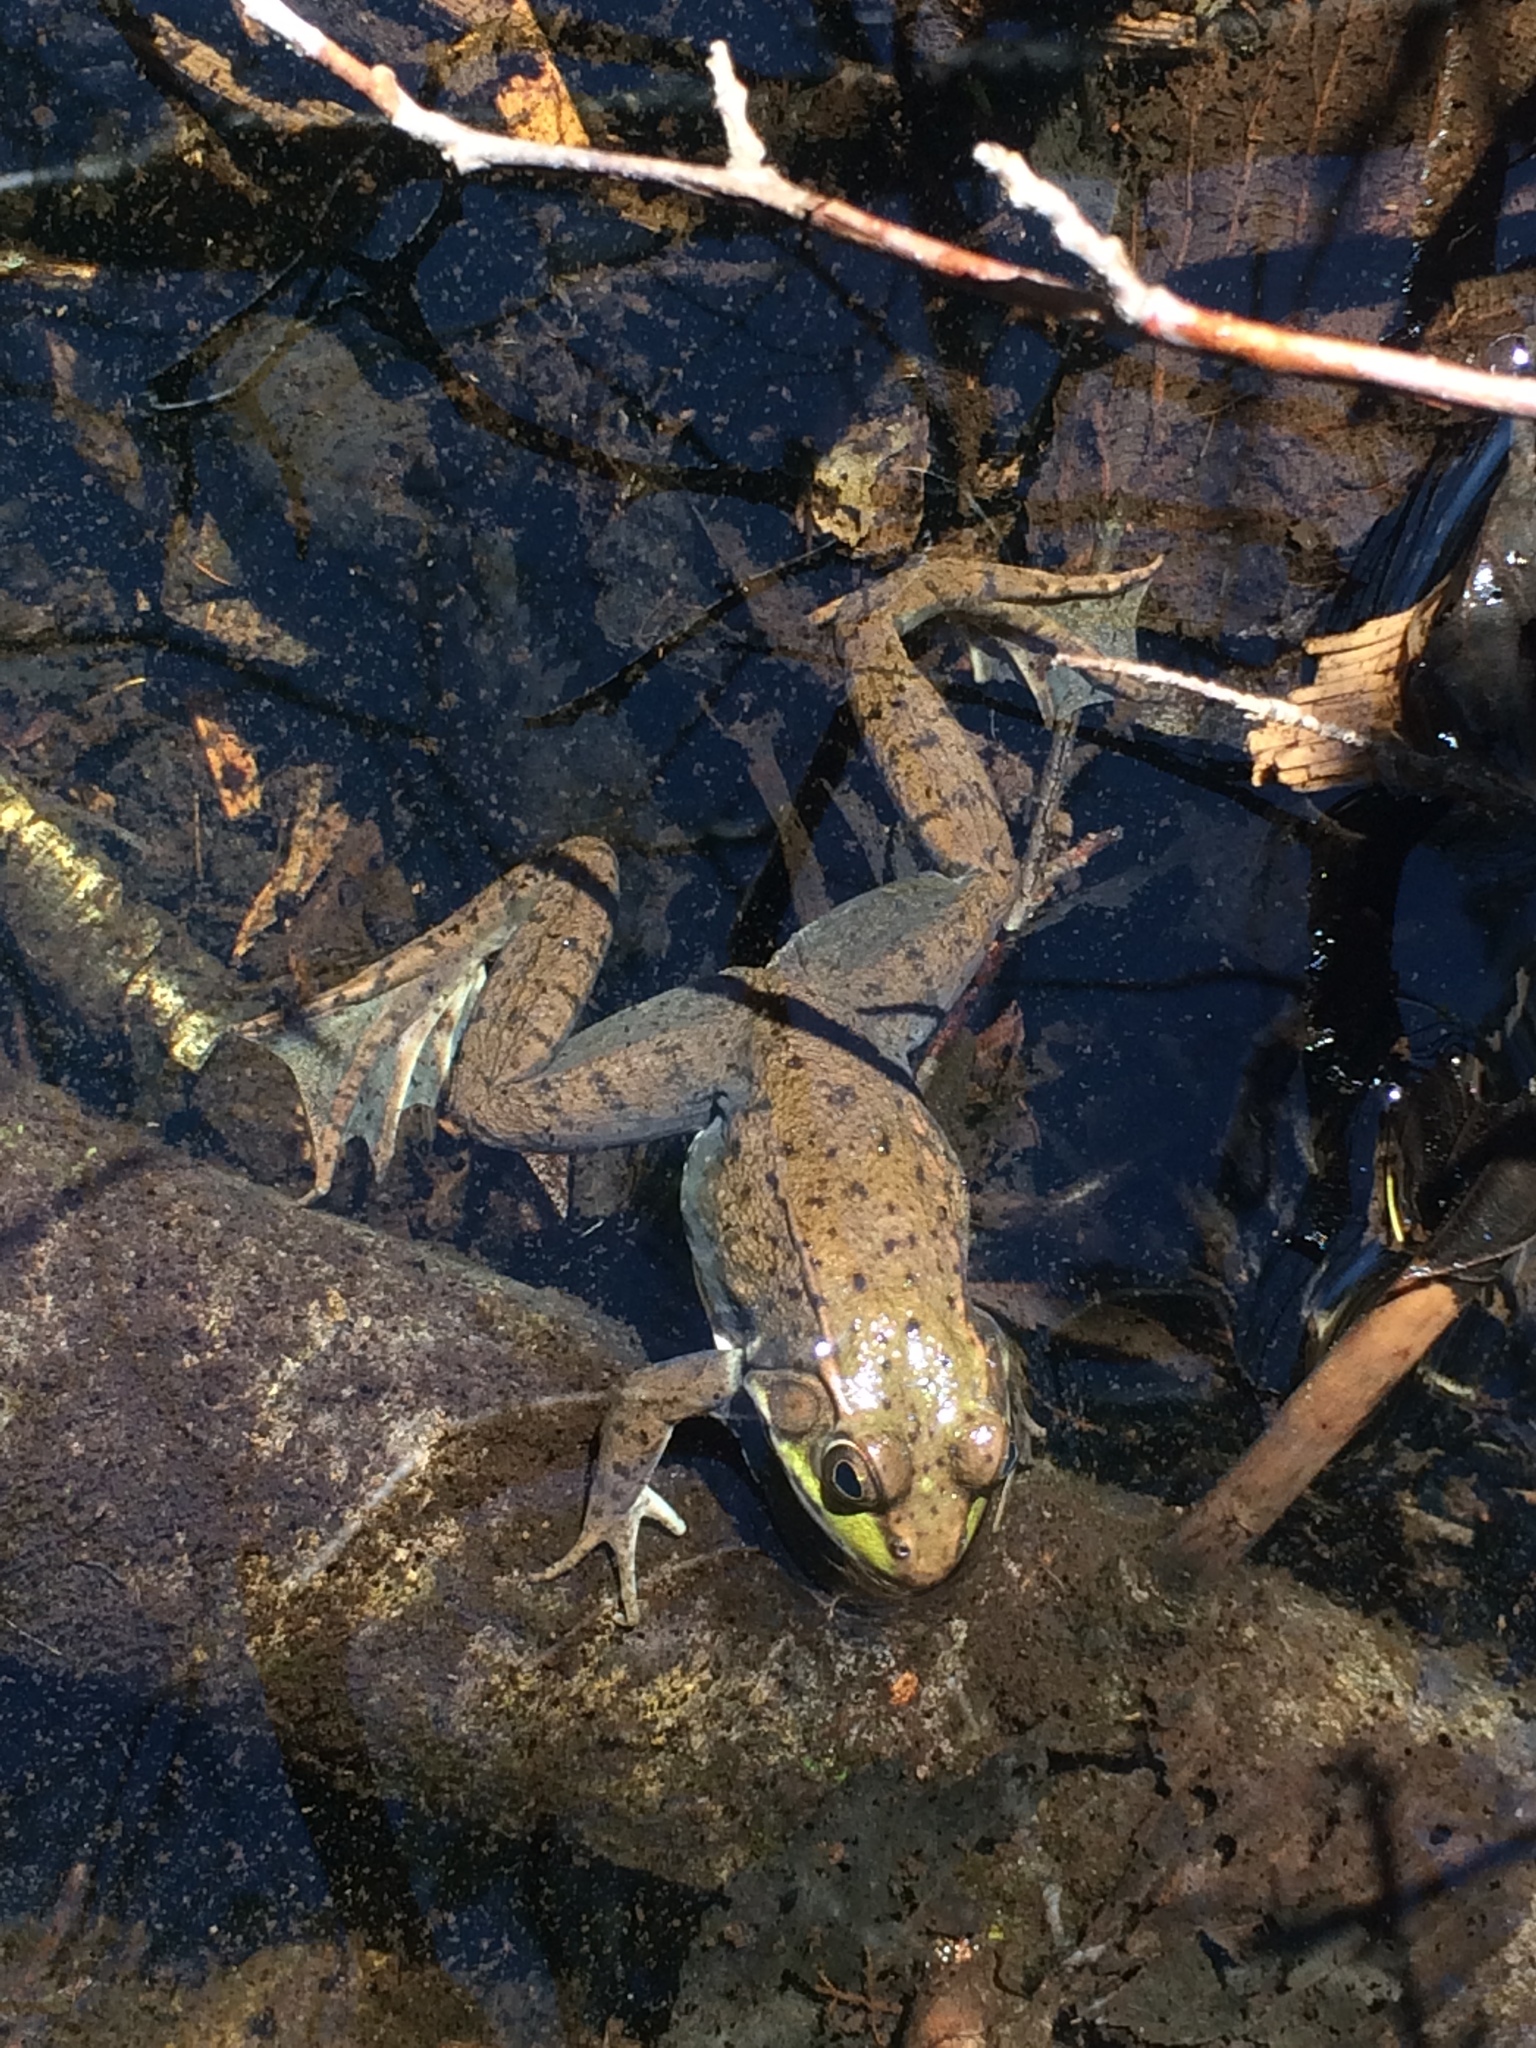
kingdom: Animalia
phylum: Chordata
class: Amphibia
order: Anura
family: Ranidae
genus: Lithobates
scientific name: Lithobates clamitans
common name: Green frog
